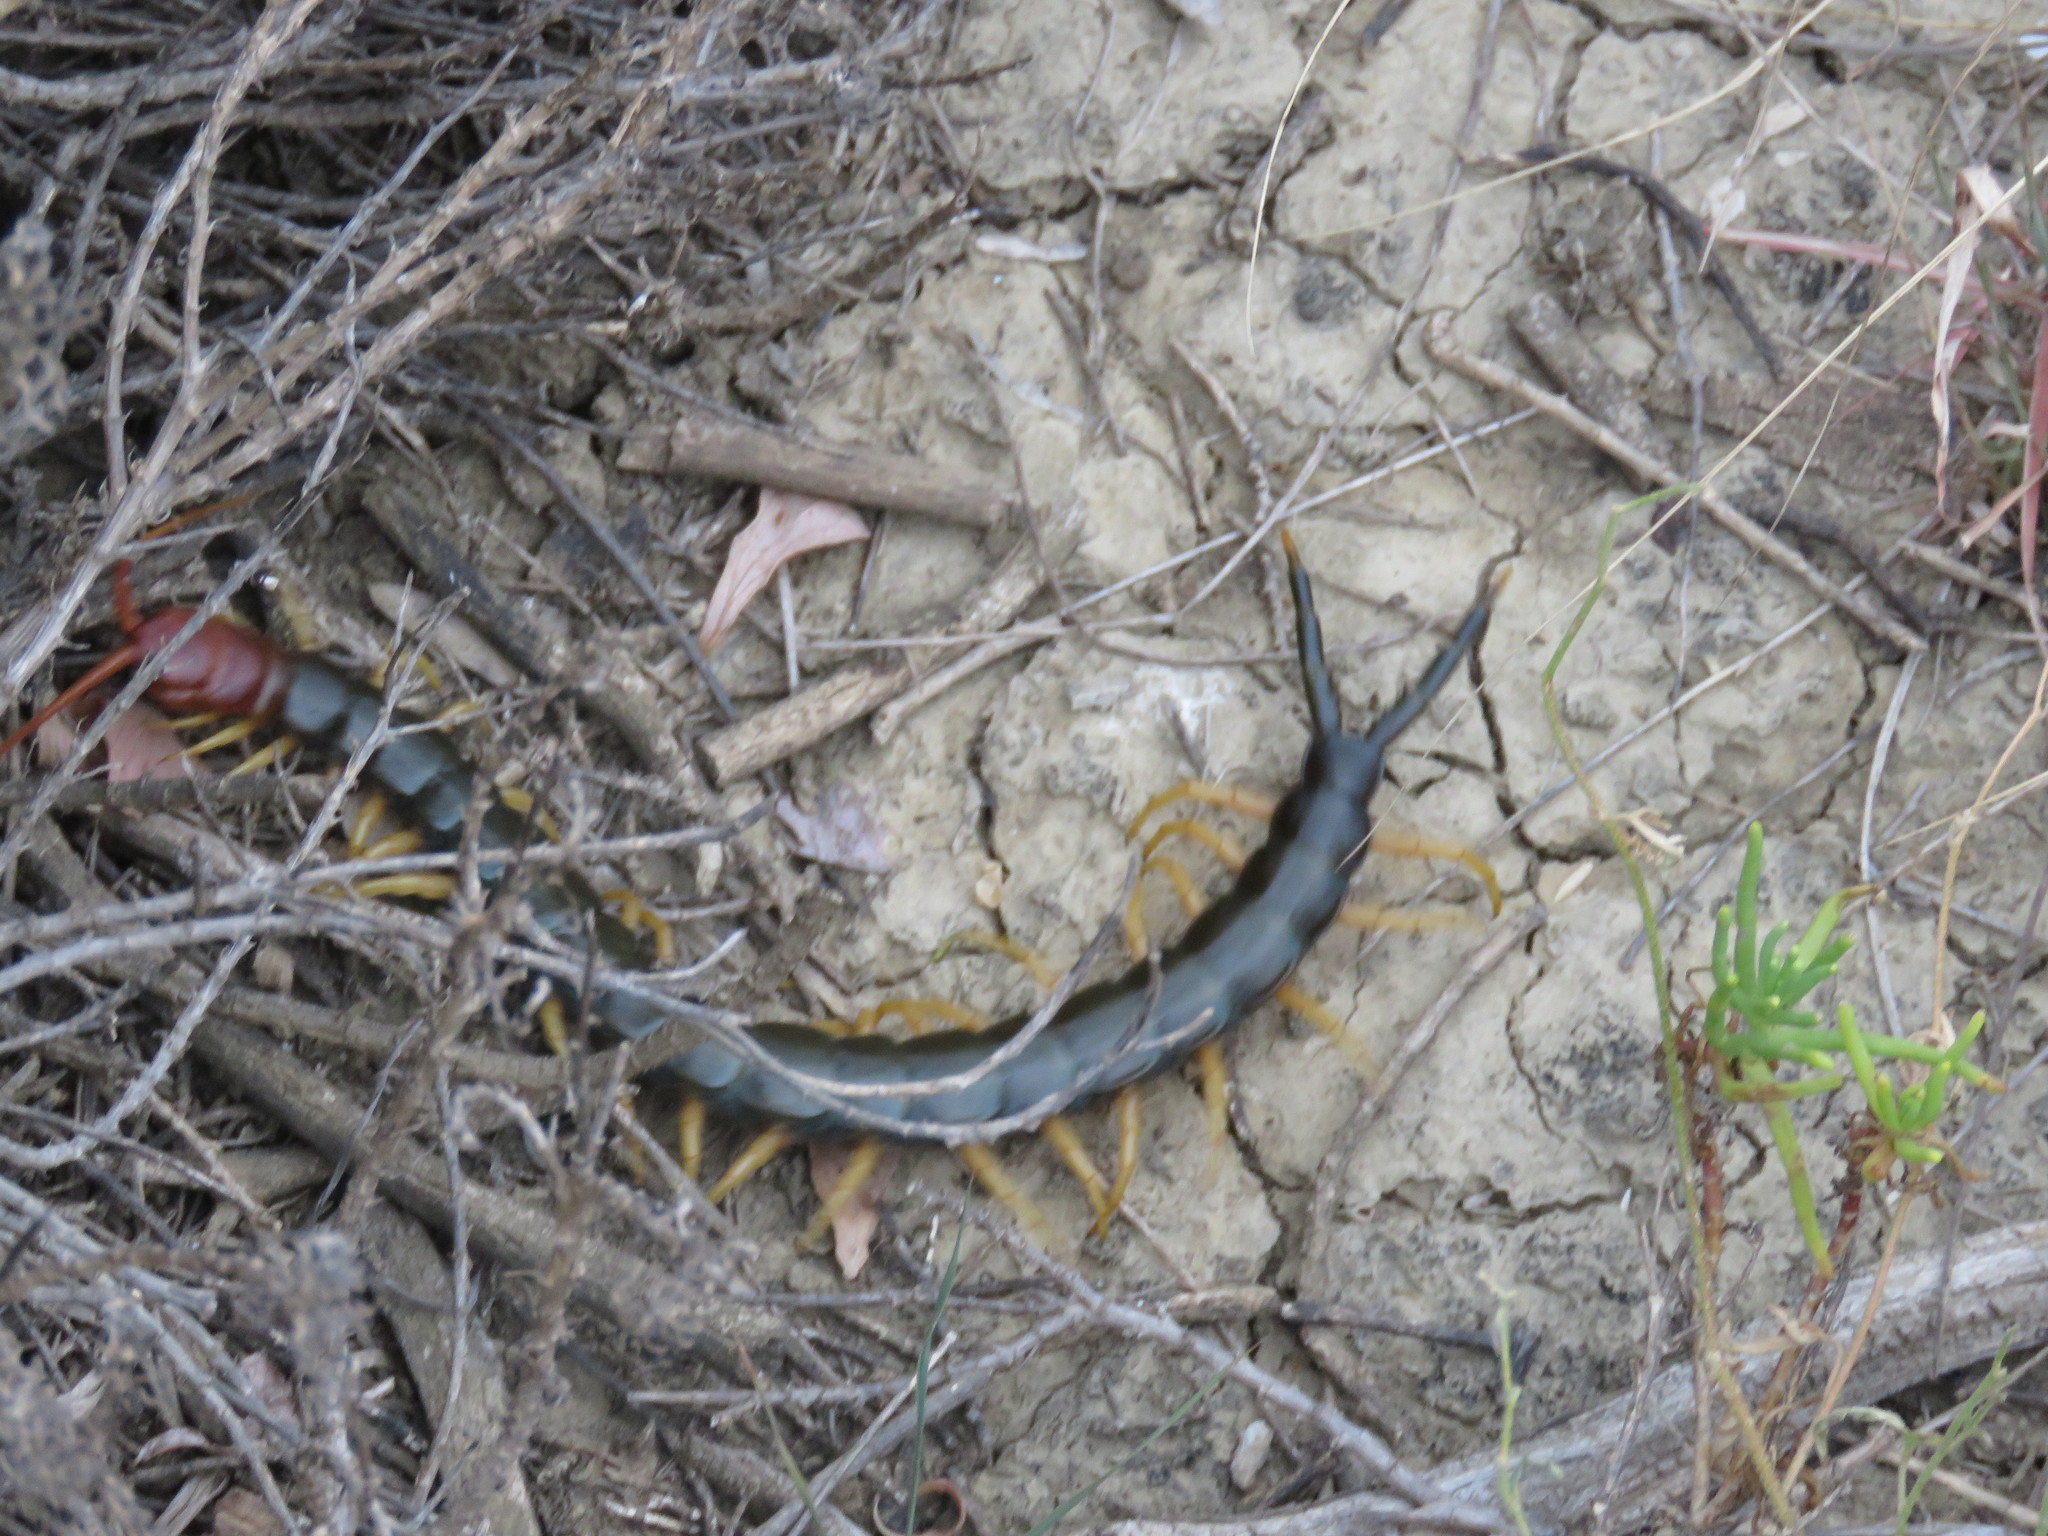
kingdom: Animalia
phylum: Arthropoda
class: Chilopoda
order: Scolopendromorpha
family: Scolopendridae
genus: Scolopendra
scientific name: Scolopendra heros
